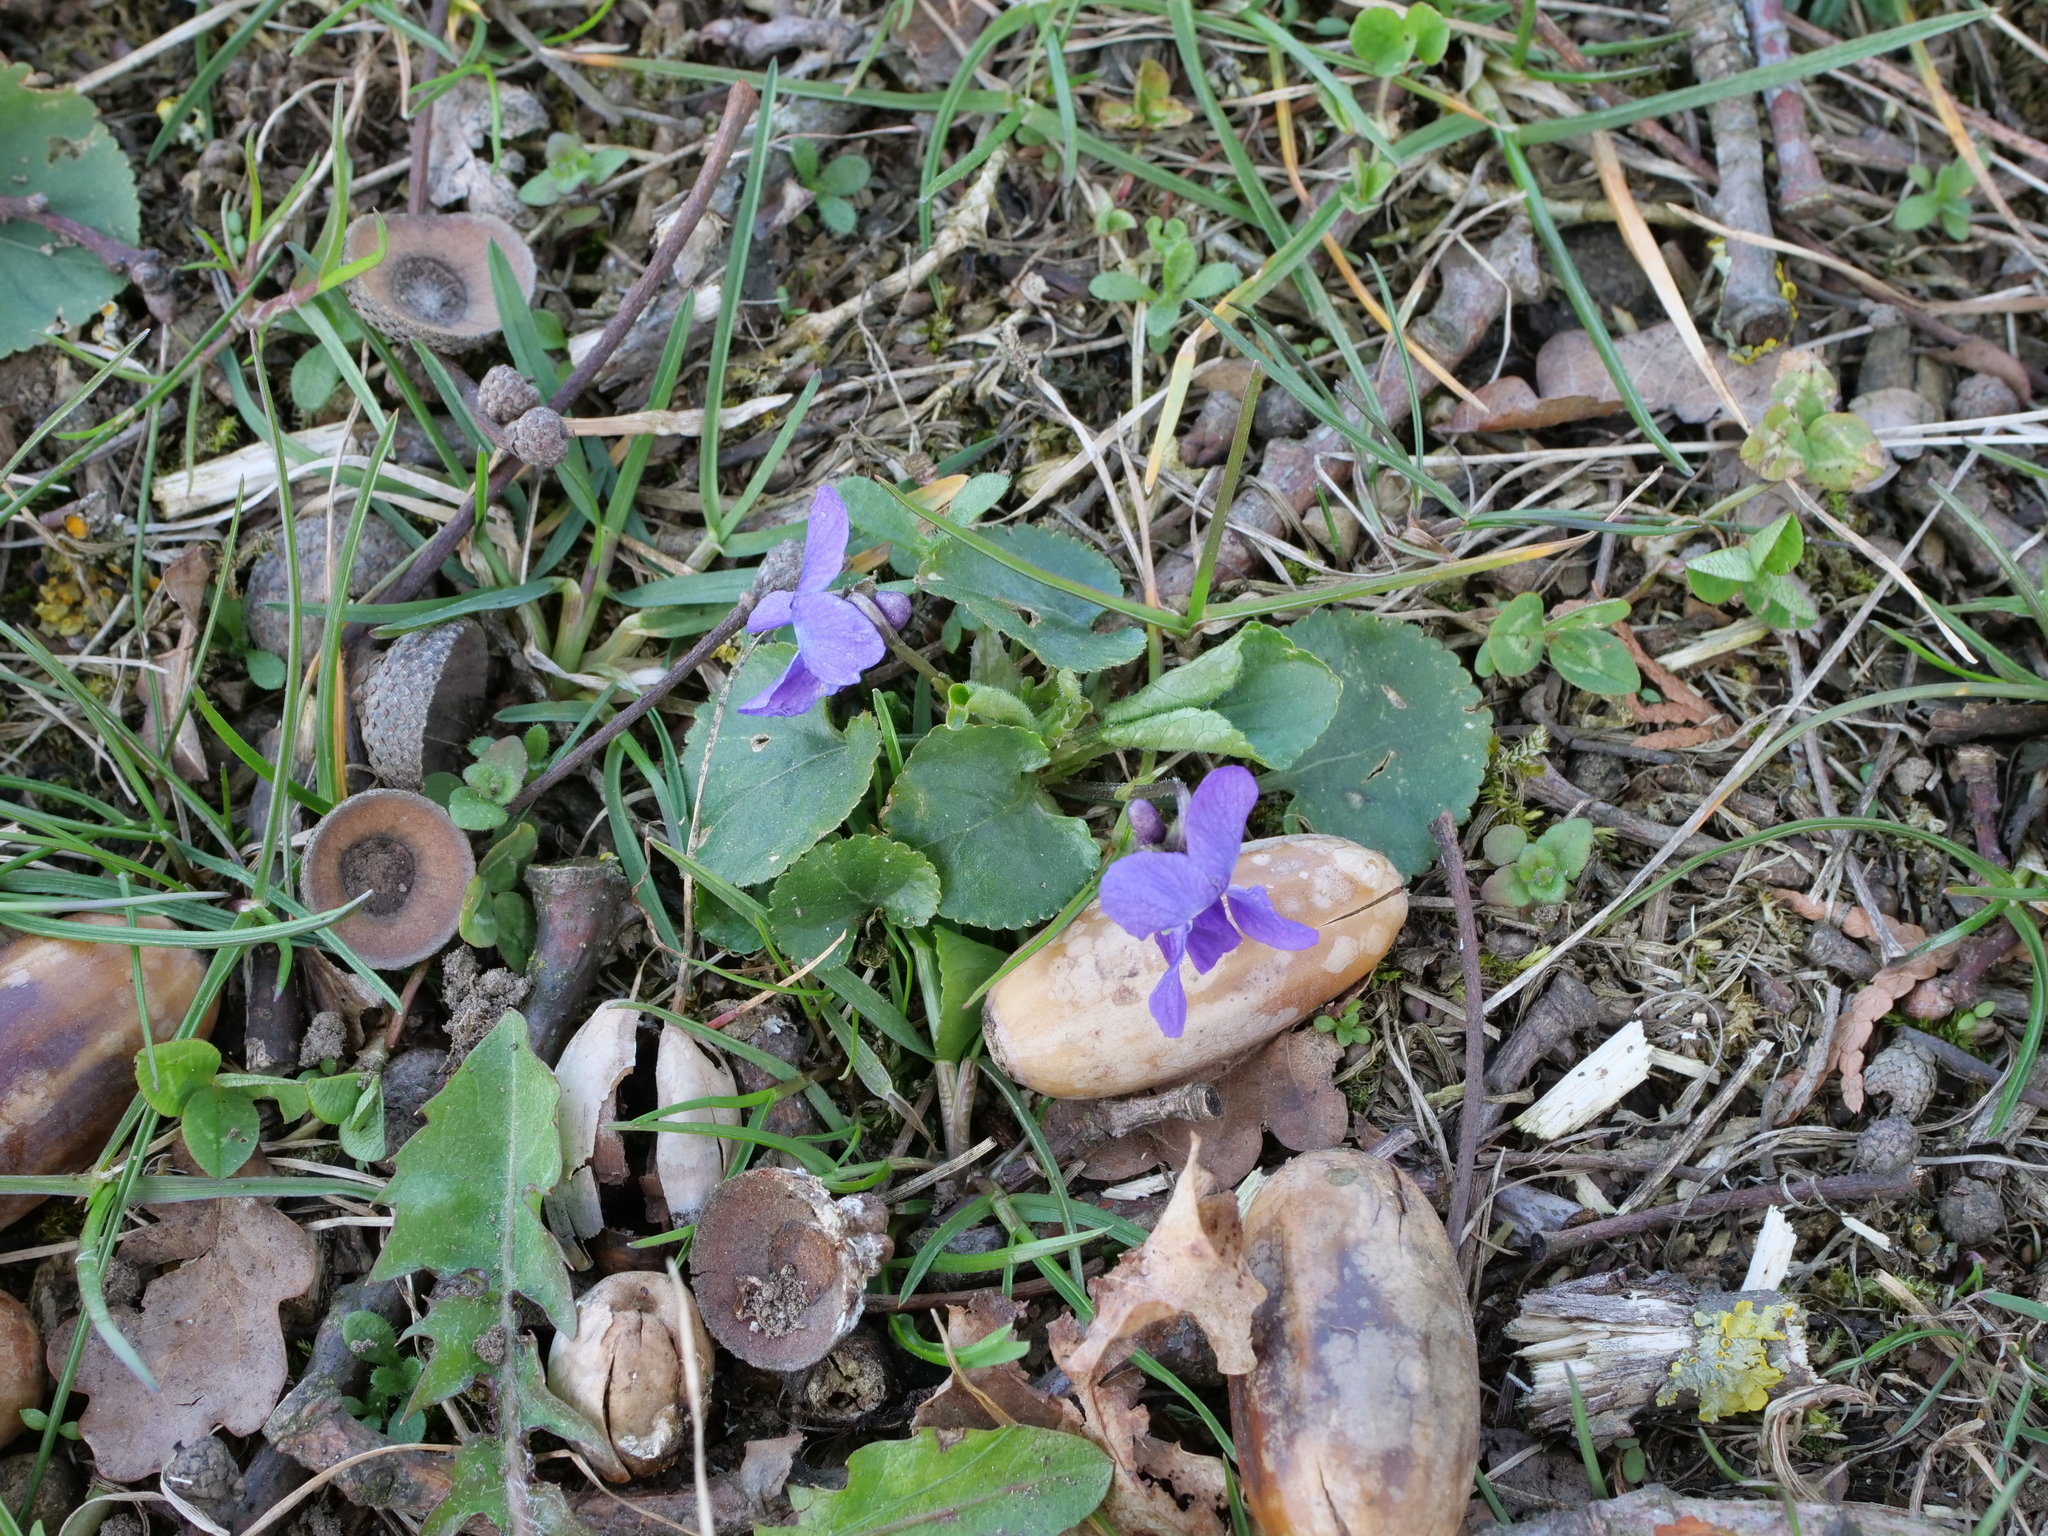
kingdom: Plantae
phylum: Tracheophyta
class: Magnoliopsida
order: Malpighiales
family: Violaceae
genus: Viola
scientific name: Viola odorata
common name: Sweet violet
